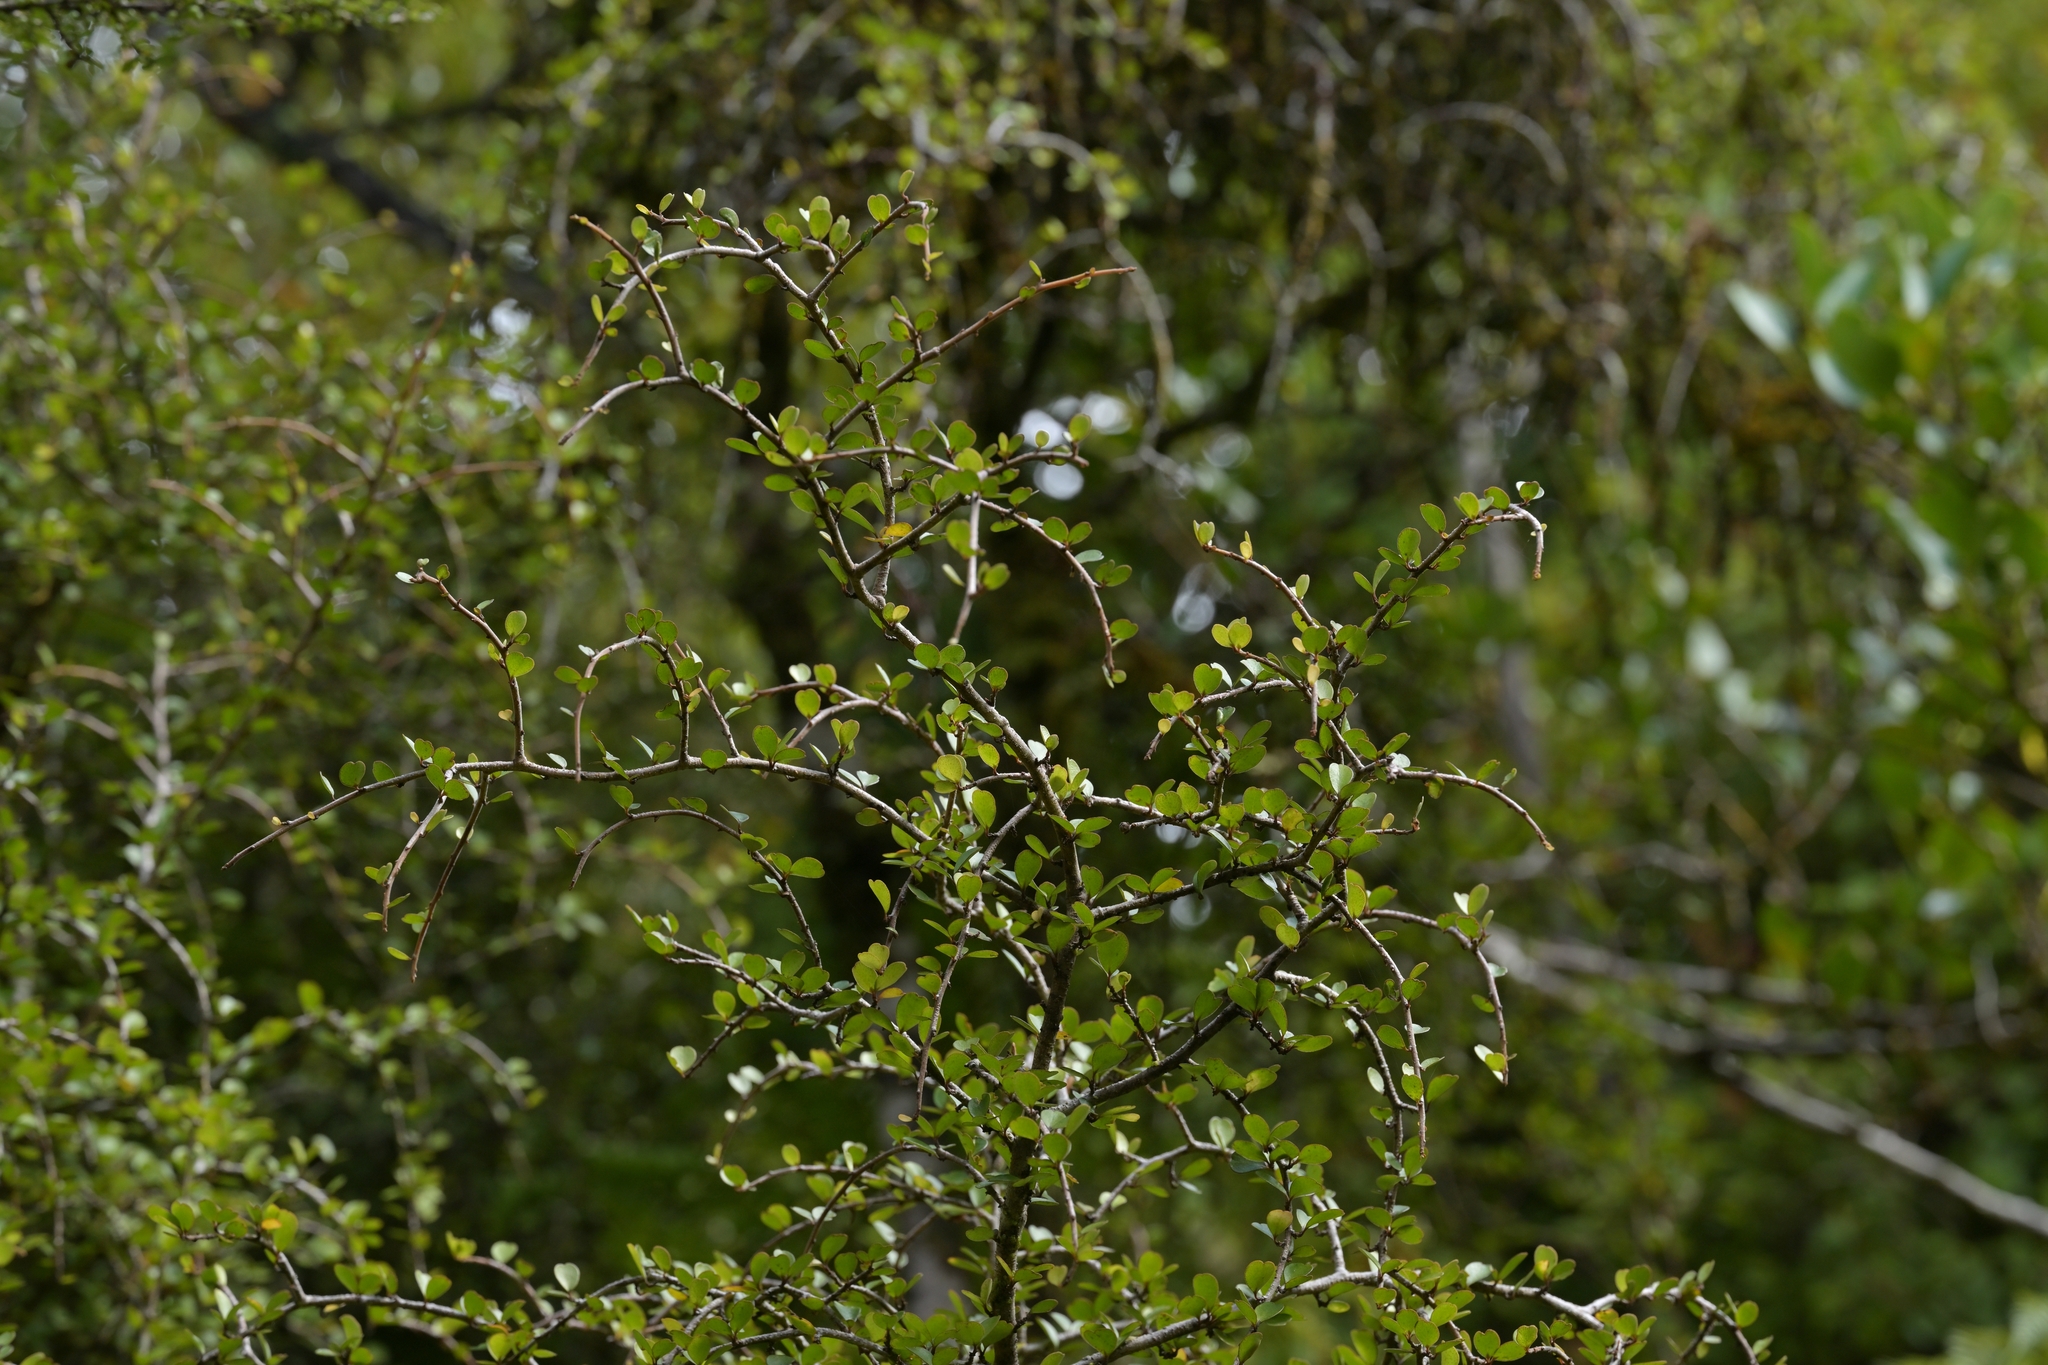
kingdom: Plantae
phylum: Tracheophyta
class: Magnoliopsida
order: Ericales
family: Primulaceae
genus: Myrsine
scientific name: Myrsine divaricata
